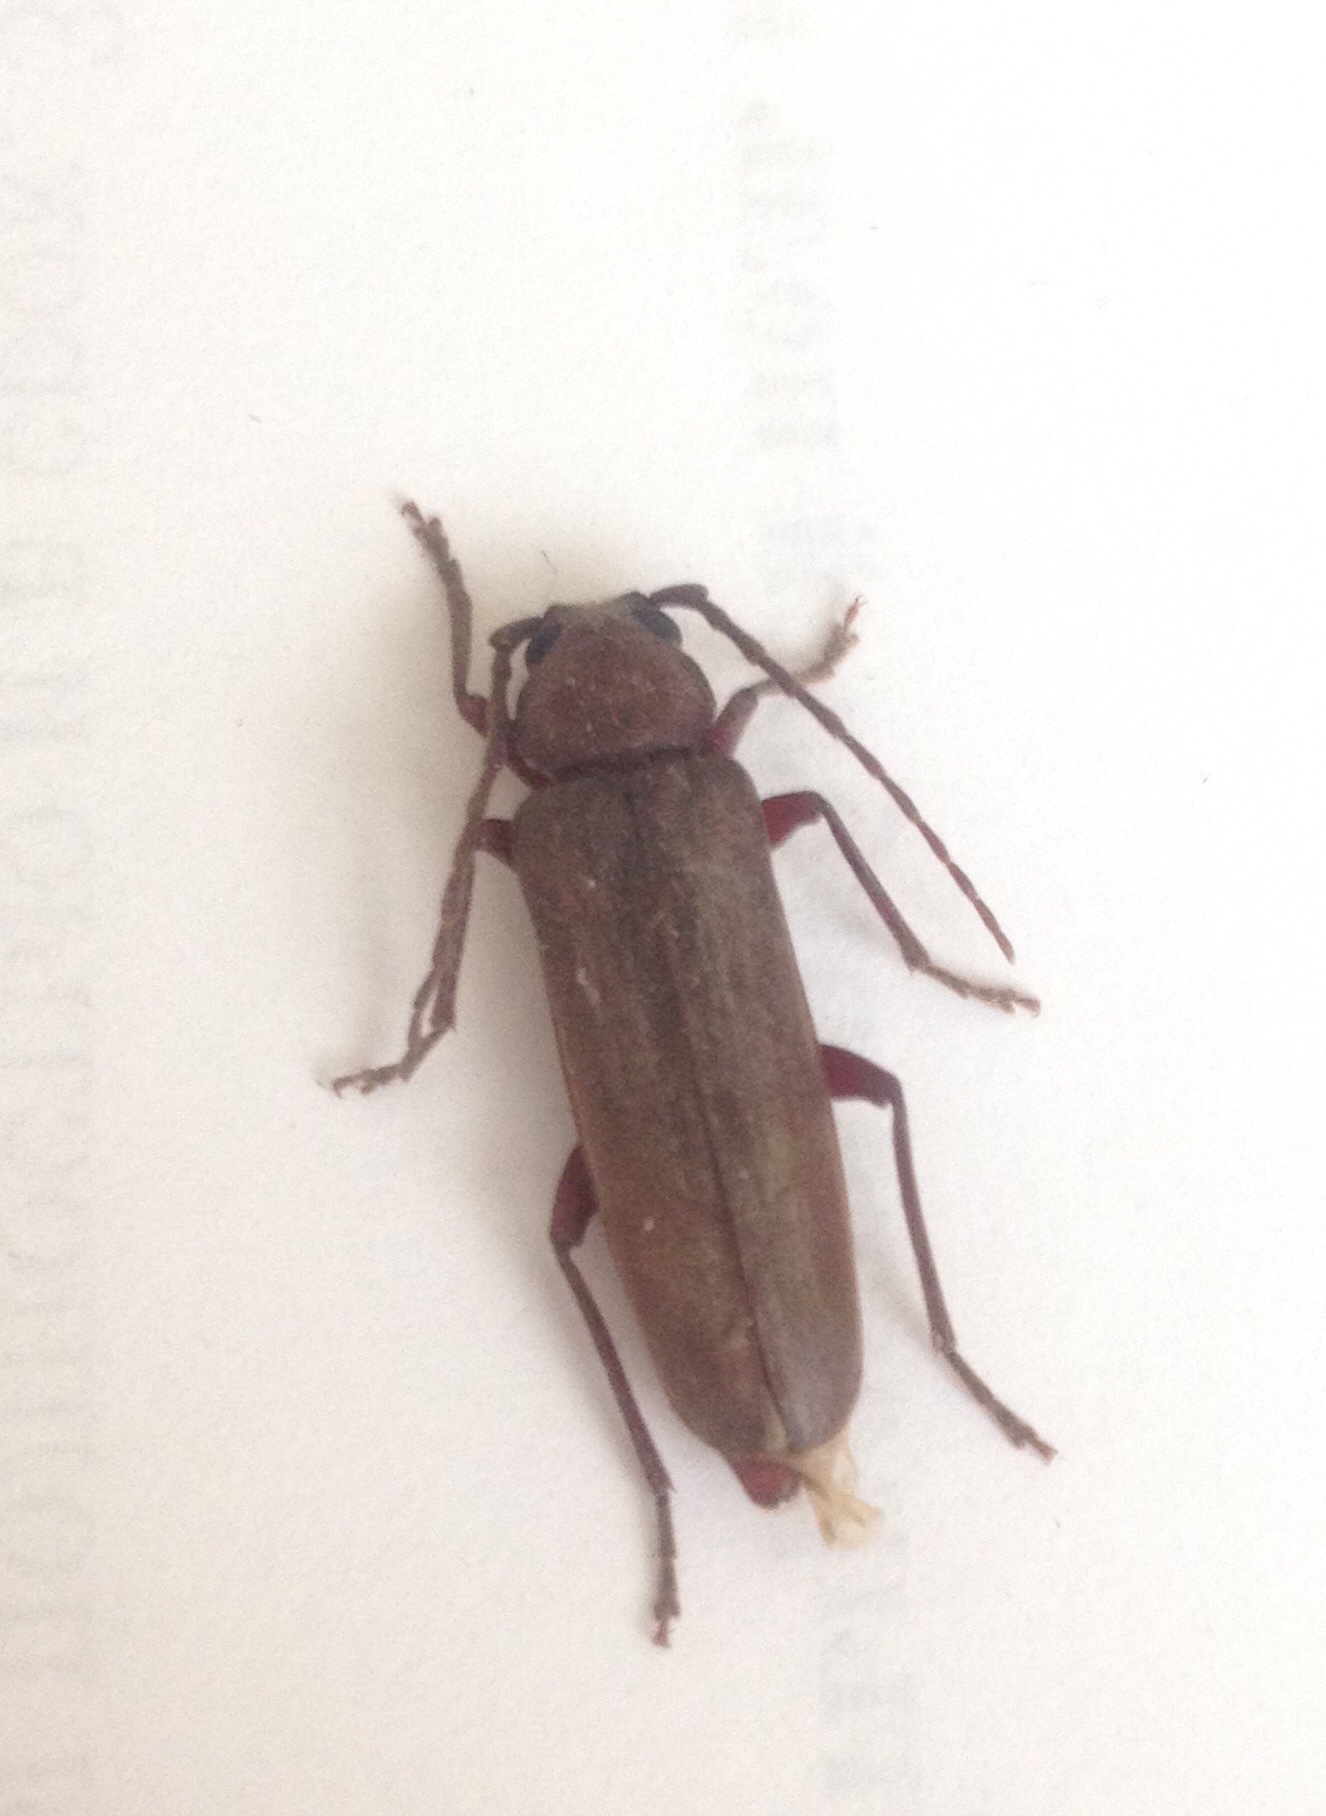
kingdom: Animalia
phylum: Arthropoda
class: Insecta
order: Coleoptera
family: Cerambycidae
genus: Arhopalus
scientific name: Arhopalus rusticus
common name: Rust pine borer
